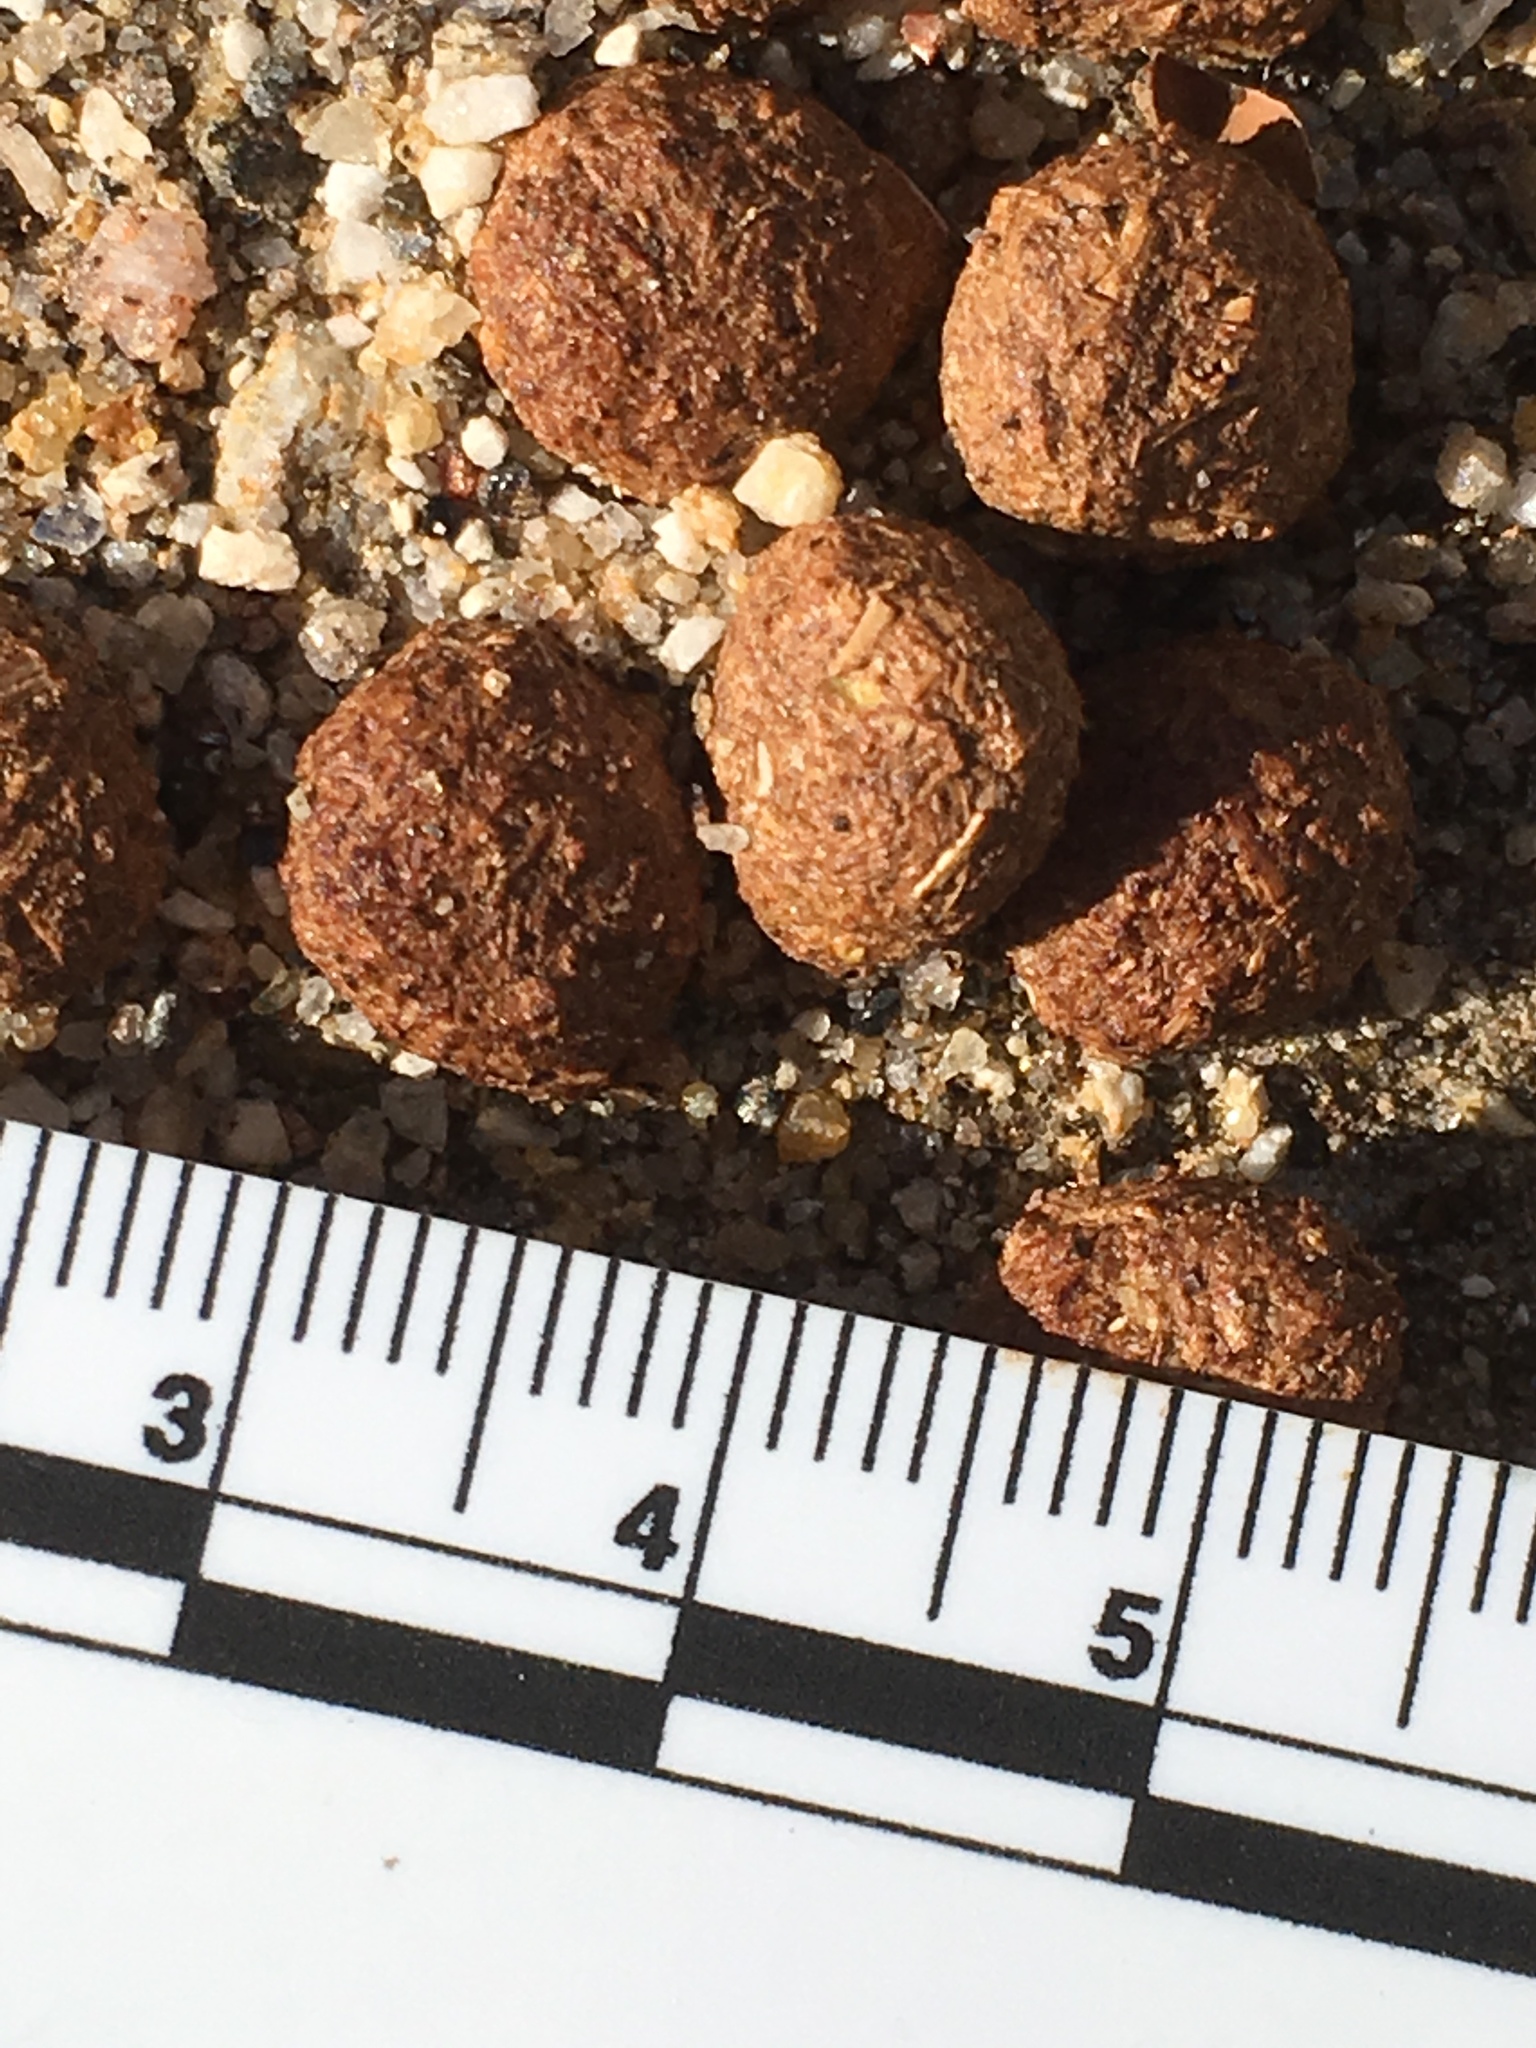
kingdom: Animalia
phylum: Chordata
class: Mammalia
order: Lagomorpha
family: Leporidae
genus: Lepus
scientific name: Lepus californicus
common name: Black-tailed jackrabbit
